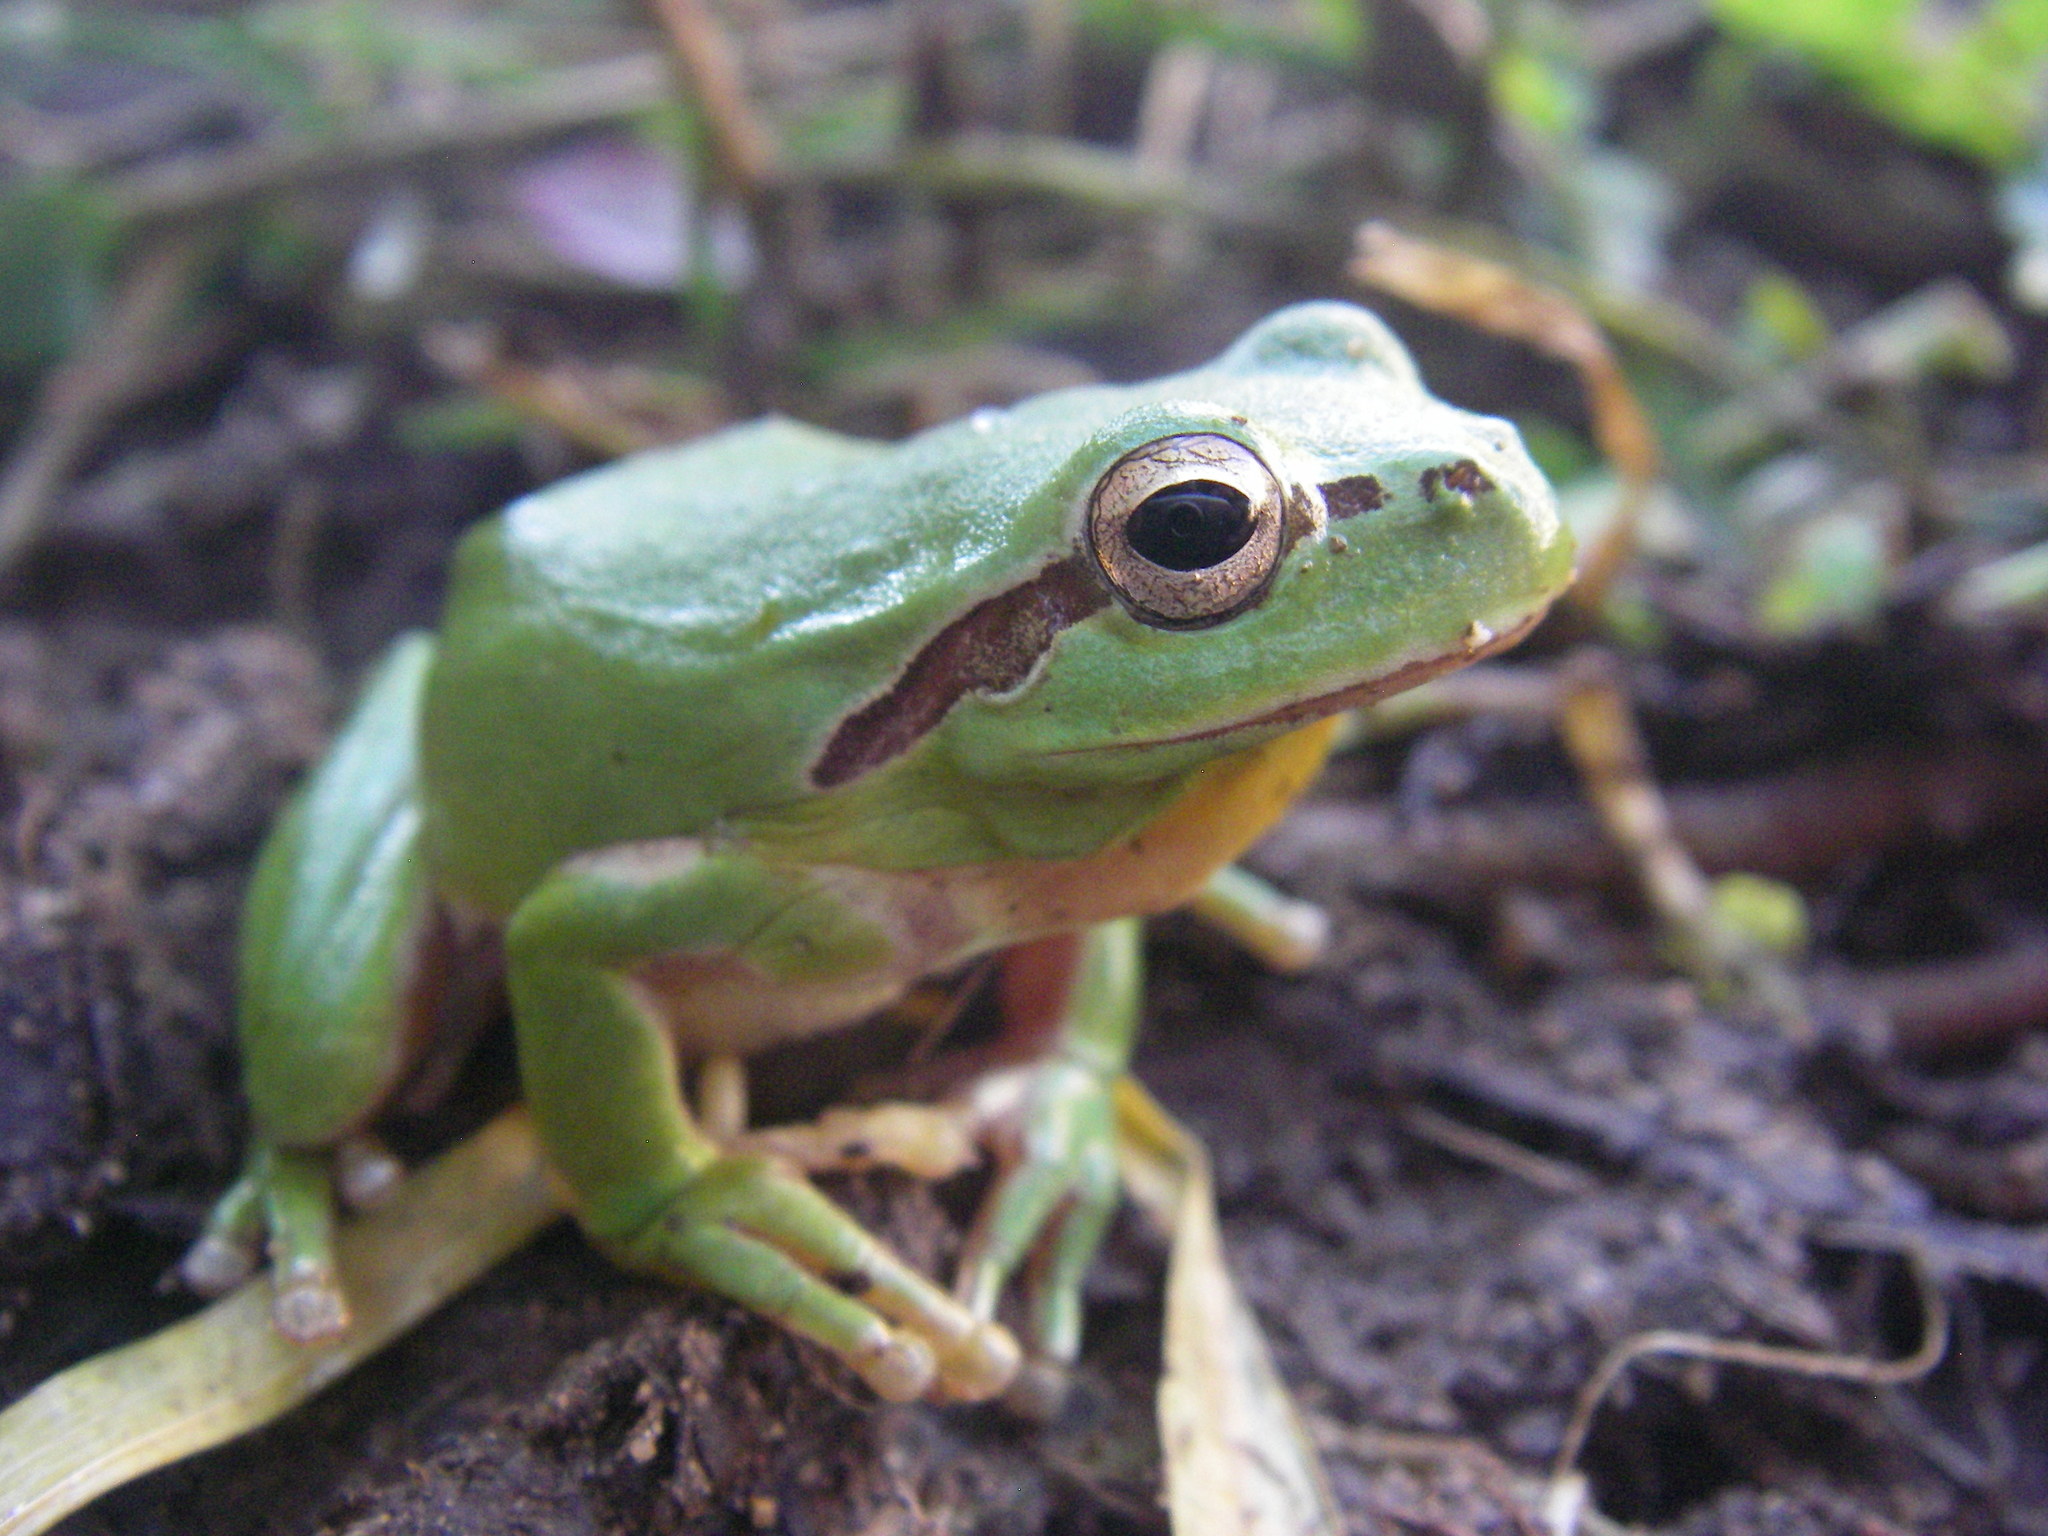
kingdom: Animalia
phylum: Chordata
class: Amphibia
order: Anura
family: Hylidae
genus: Hyla
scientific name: Hyla meridionalis
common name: Stripeless tree frog
